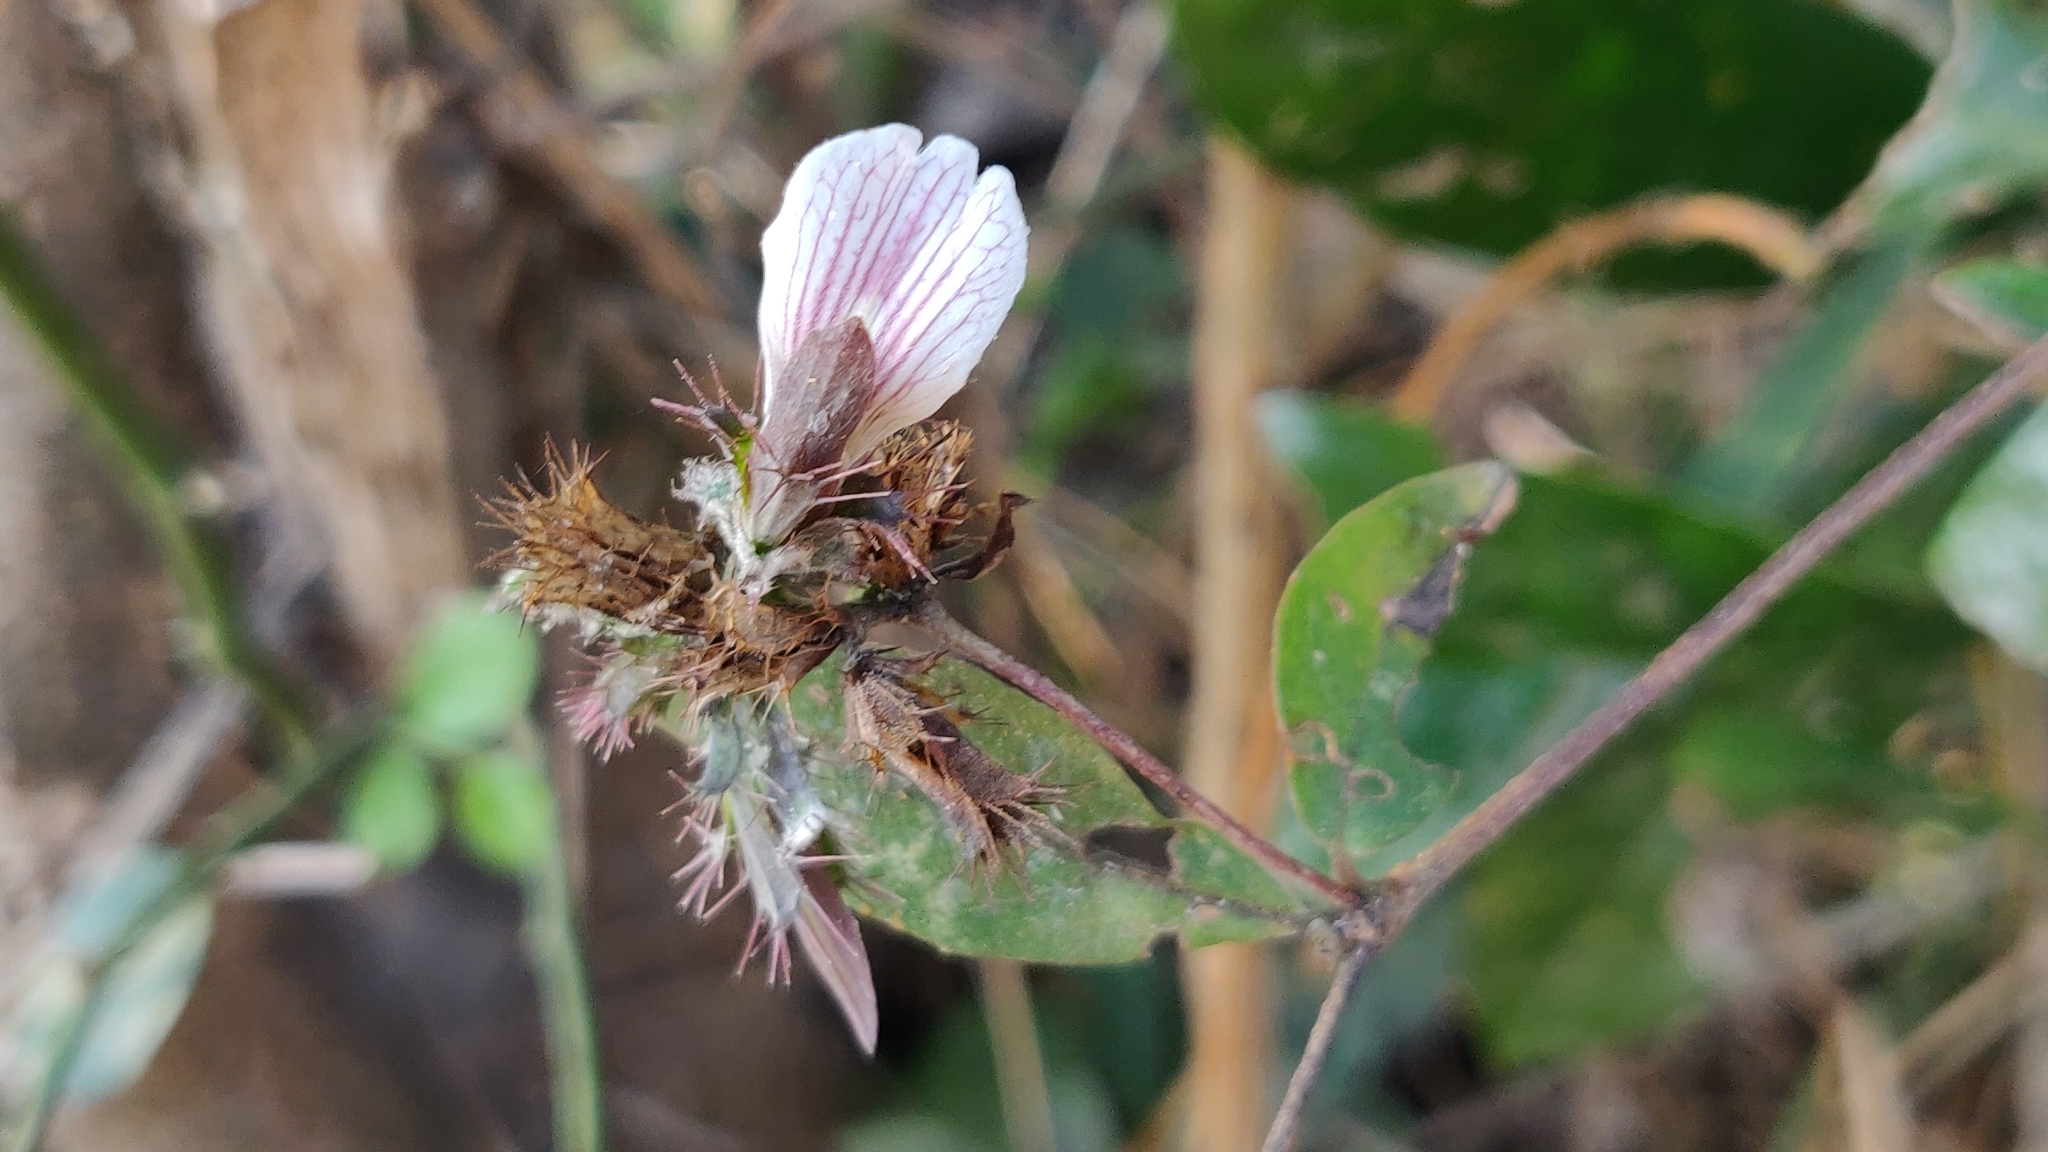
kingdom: Plantae
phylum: Tracheophyta
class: Magnoliopsida
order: Lamiales
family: Acanthaceae
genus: Blepharis
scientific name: Blepharis maderaspatensis
